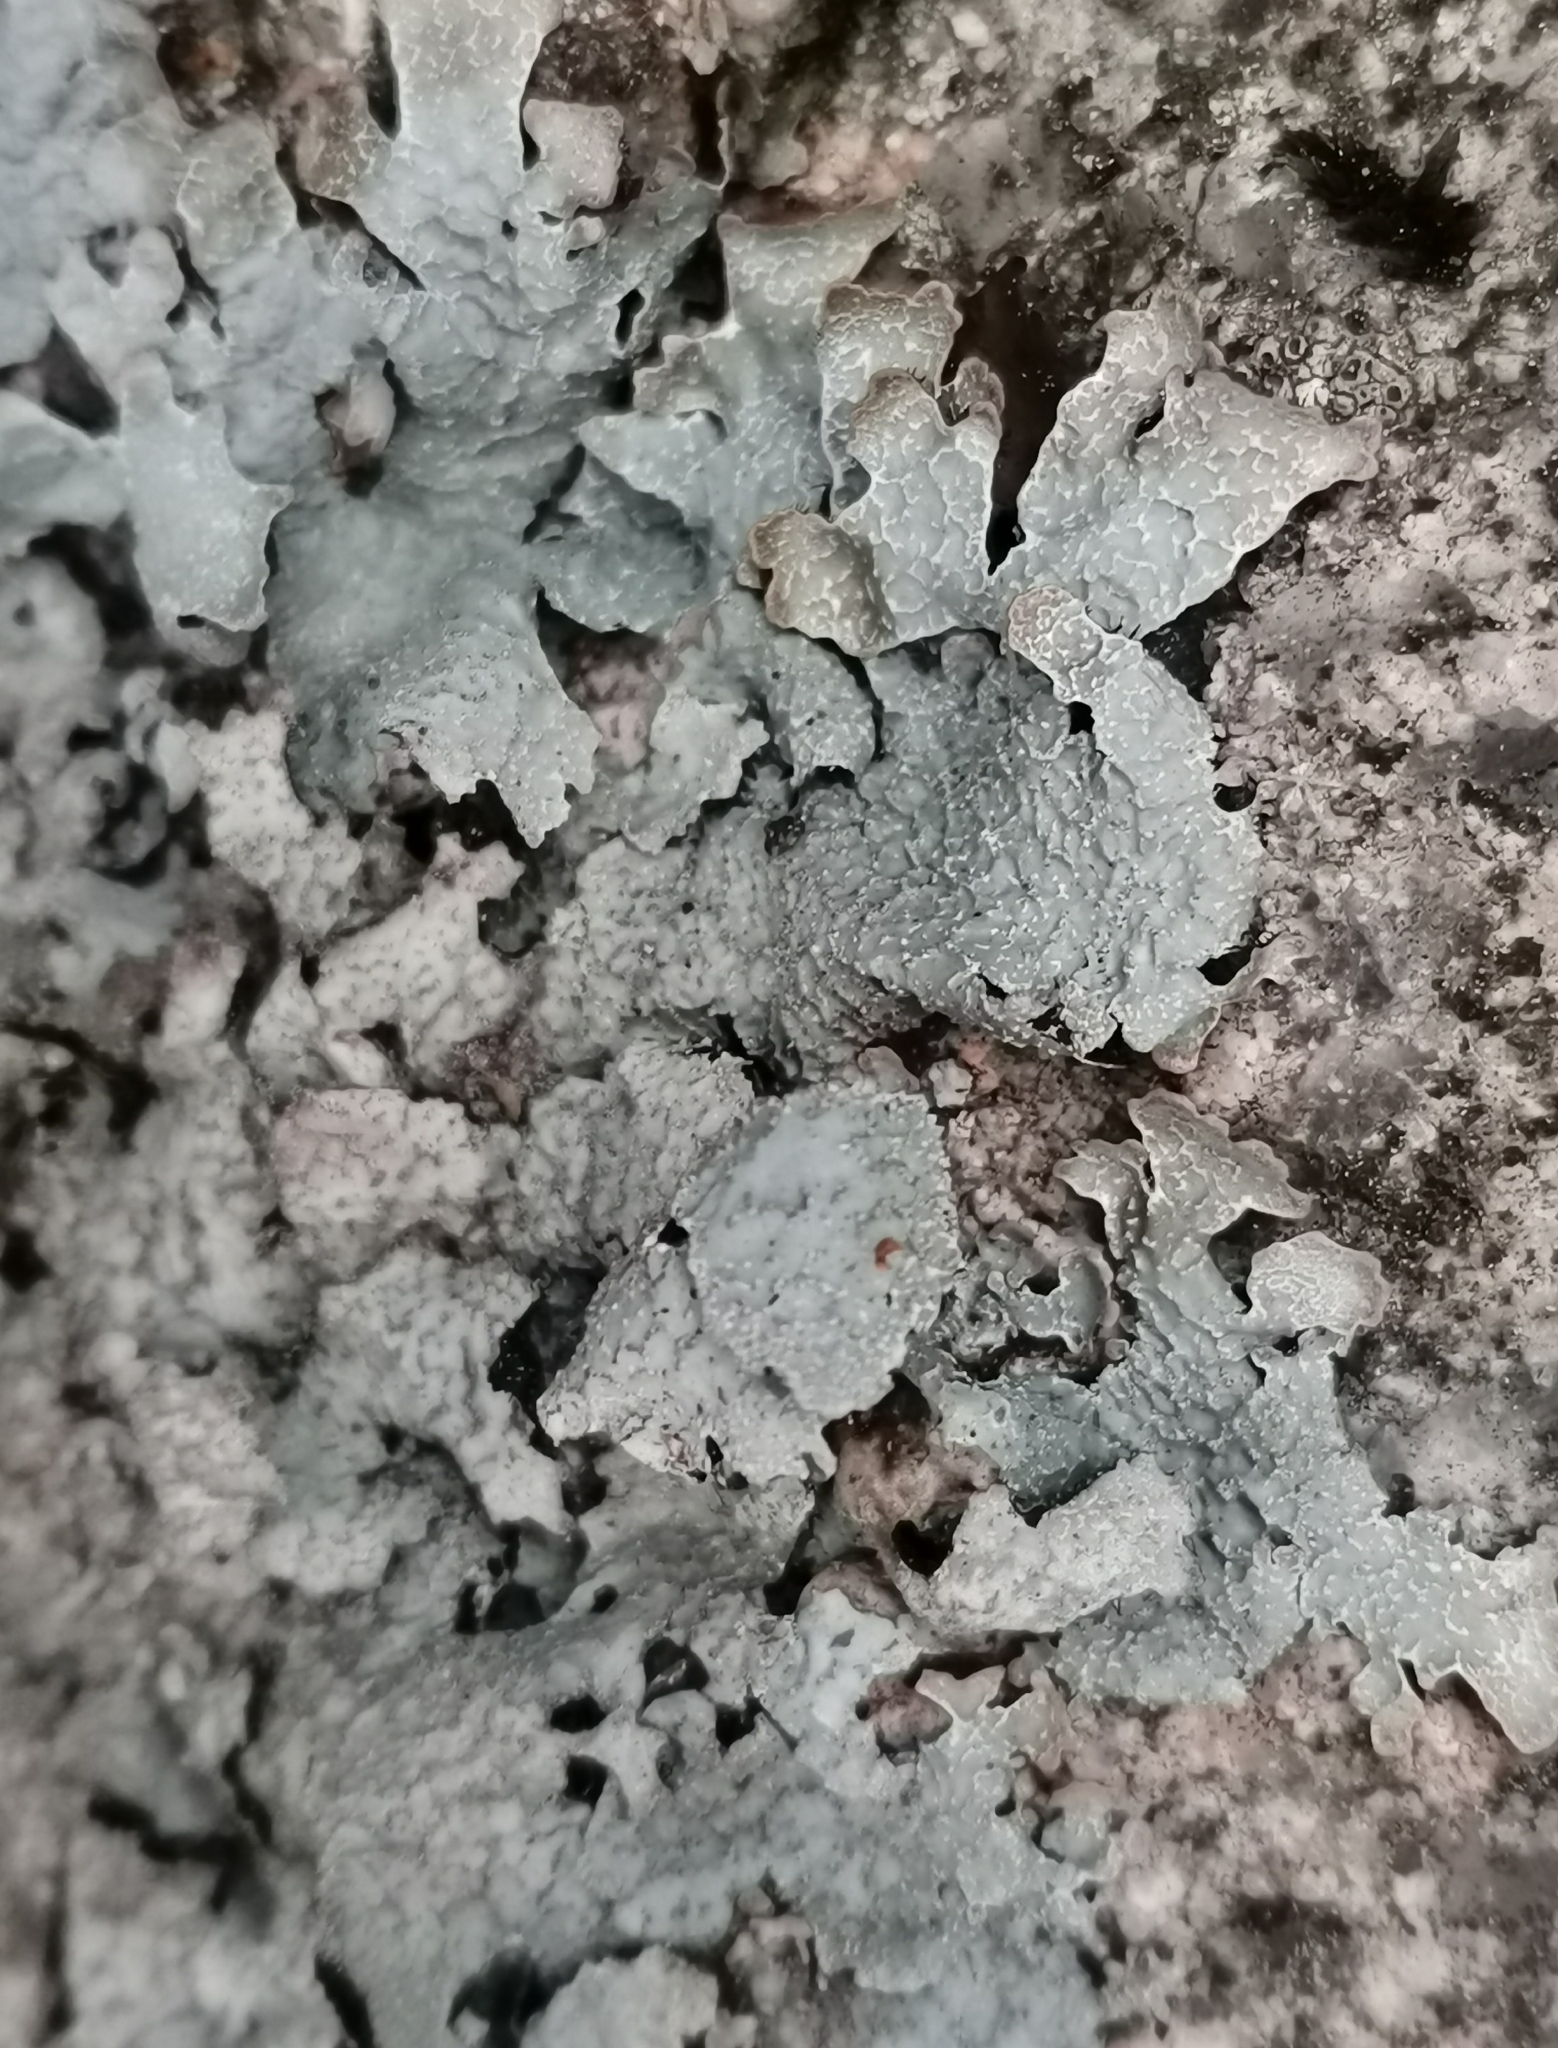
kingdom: Fungi
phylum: Ascomycota
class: Lecanoromycetes
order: Lecanorales
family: Parmeliaceae
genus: Parmelia
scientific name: Parmelia saxatilis
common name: Salted shield lichen
